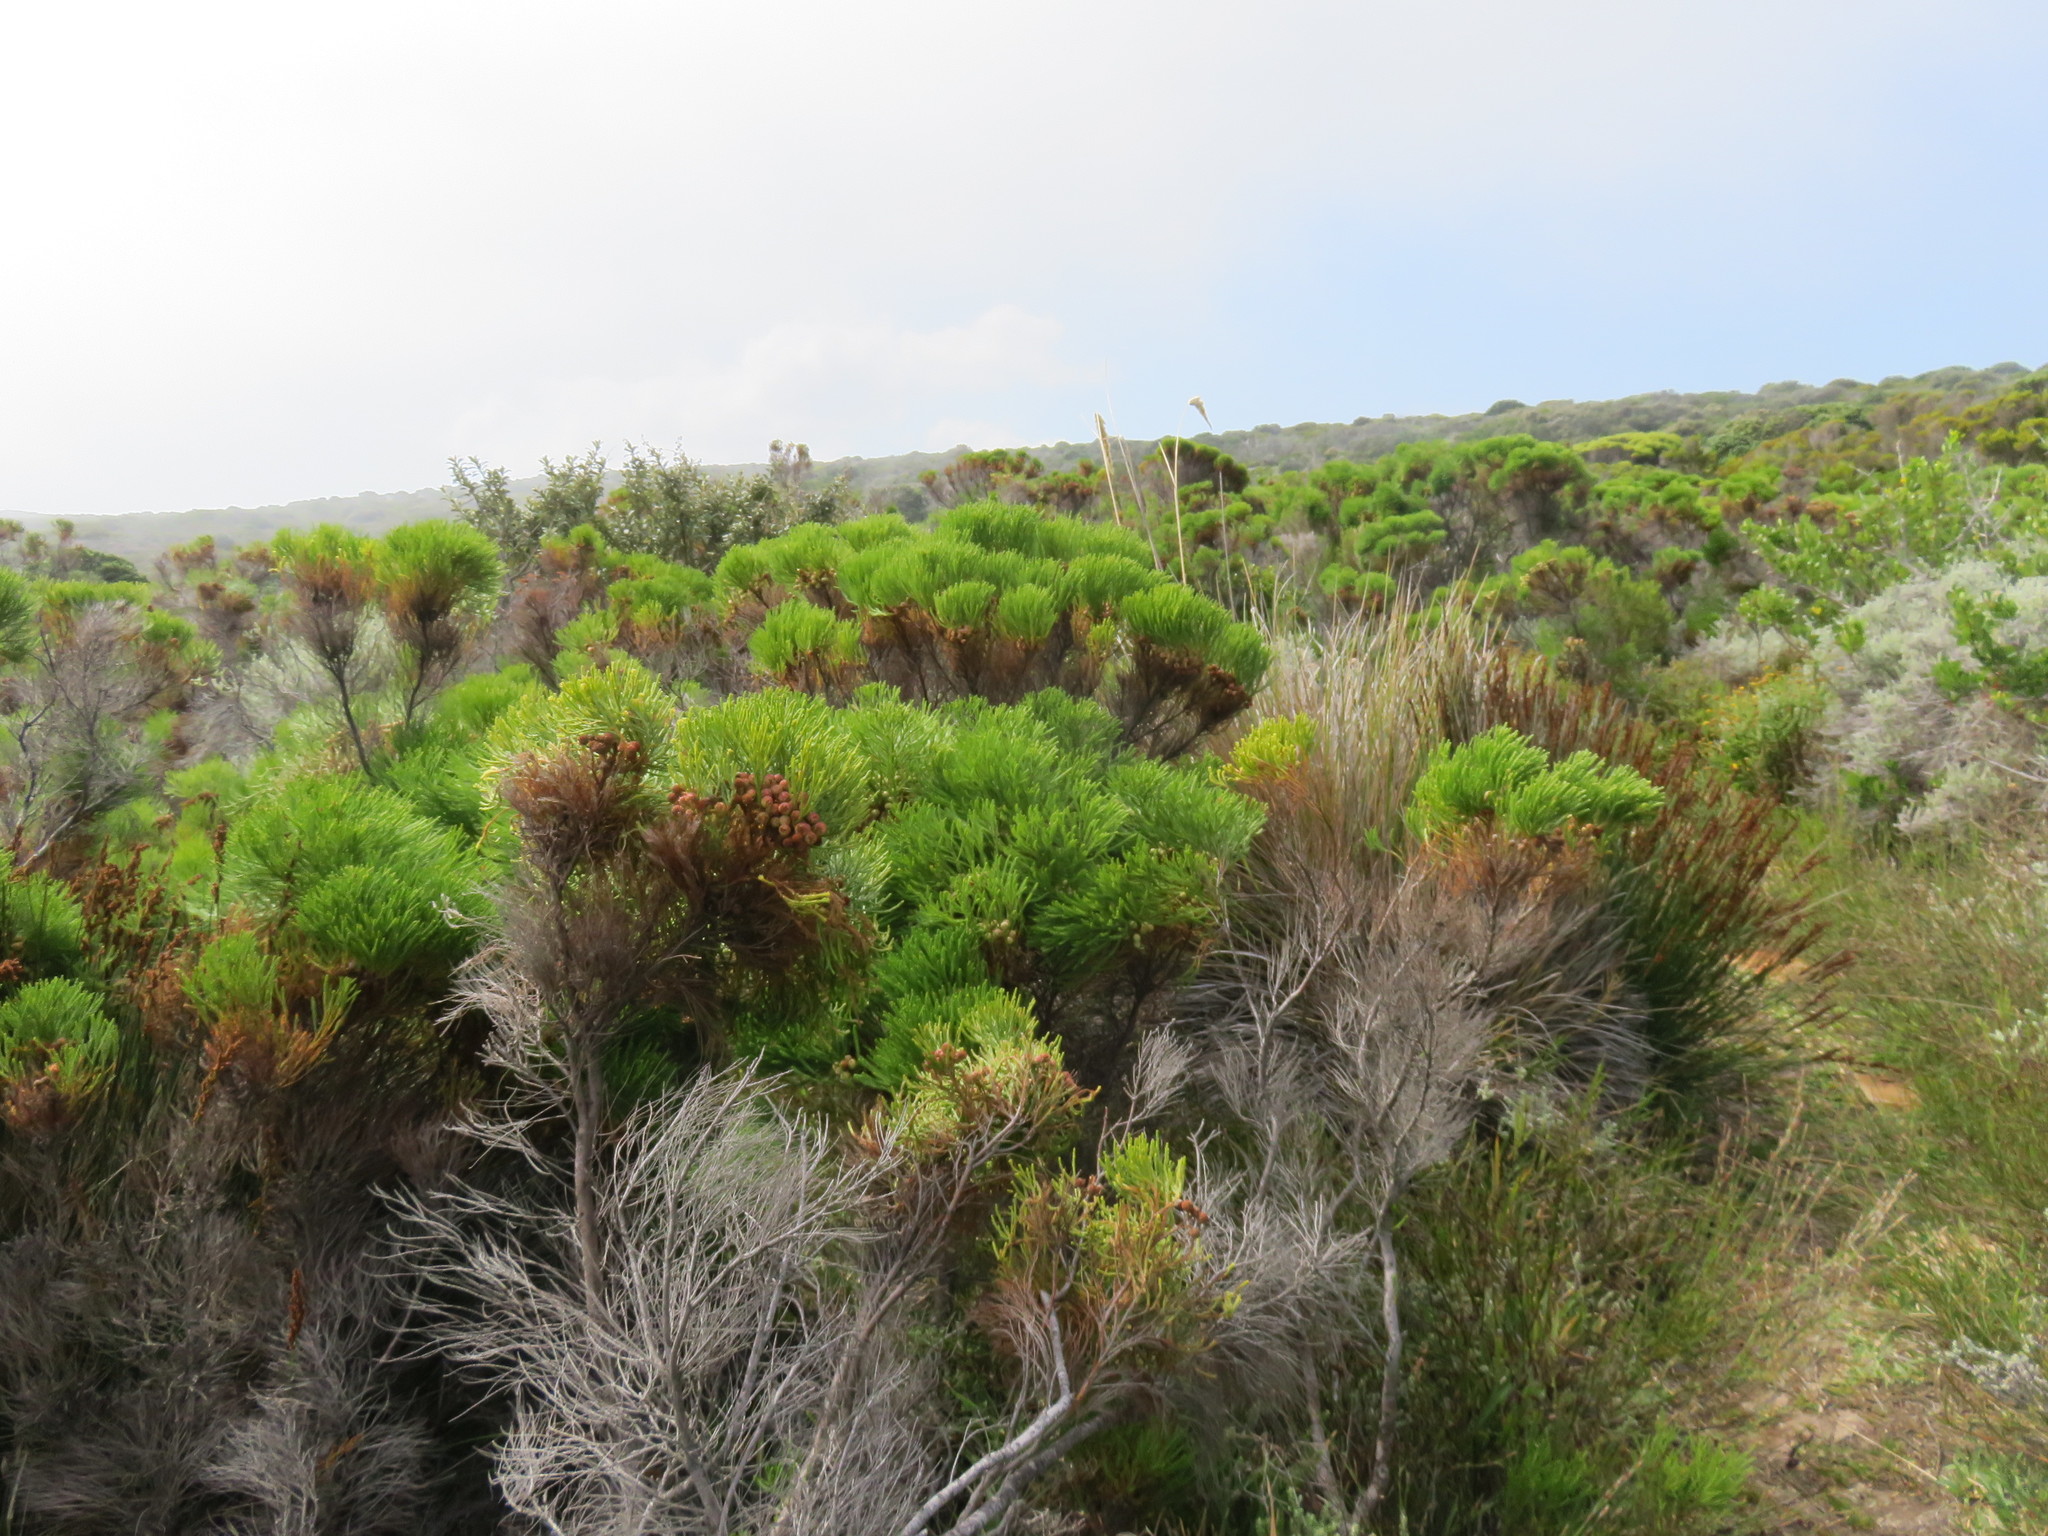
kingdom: Plantae
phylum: Tracheophyta
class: Magnoliopsida
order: Bruniales
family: Bruniaceae
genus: Berzelia
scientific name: Berzelia lanuginosa
